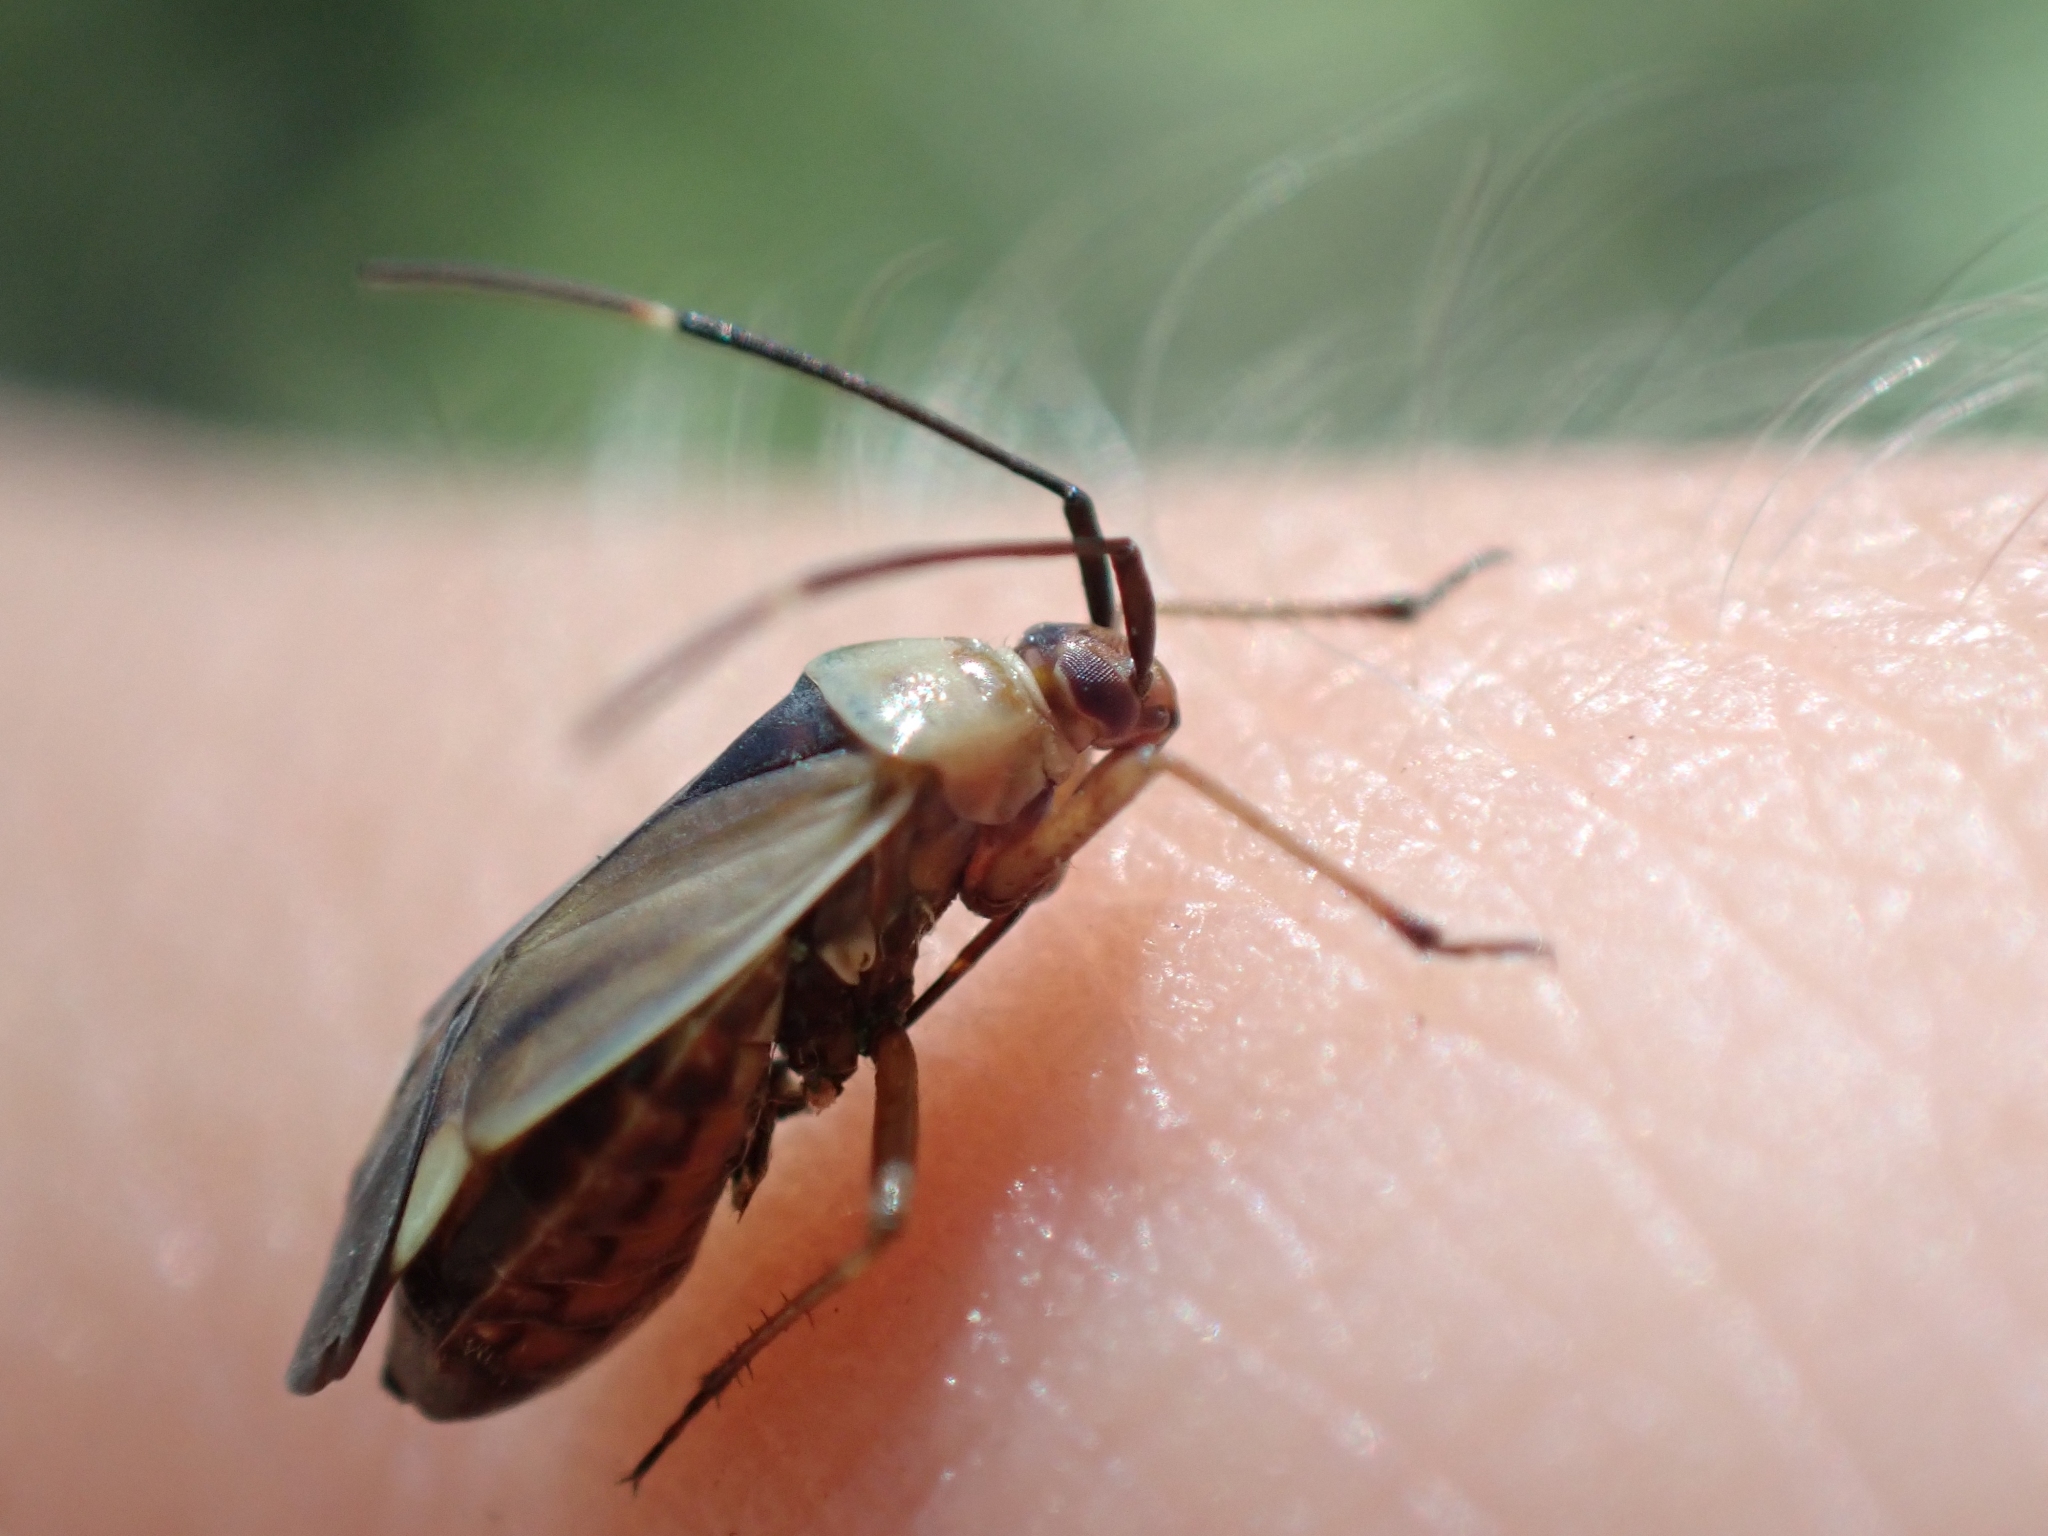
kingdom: Animalia
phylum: Arthropoda
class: Insecta
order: Hemiptera
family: Miridae
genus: Adelphocoris
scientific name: Adelphocoris rapidus
